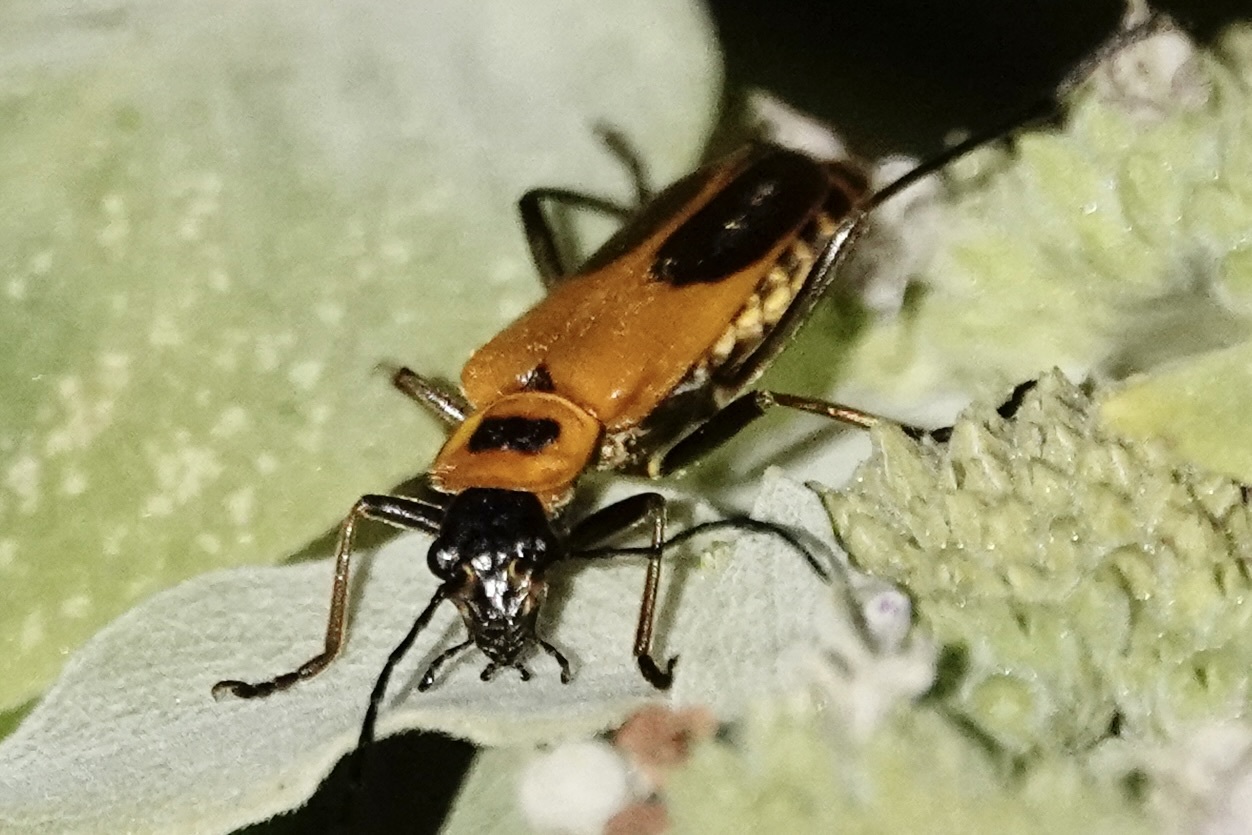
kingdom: Animalia
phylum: Arthropoda
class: Insecta
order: Coleoptera
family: Cantharidae
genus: Chauliognathus
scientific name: Chauliognathus pensylvanicus
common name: Goldenrod soldier beetle
